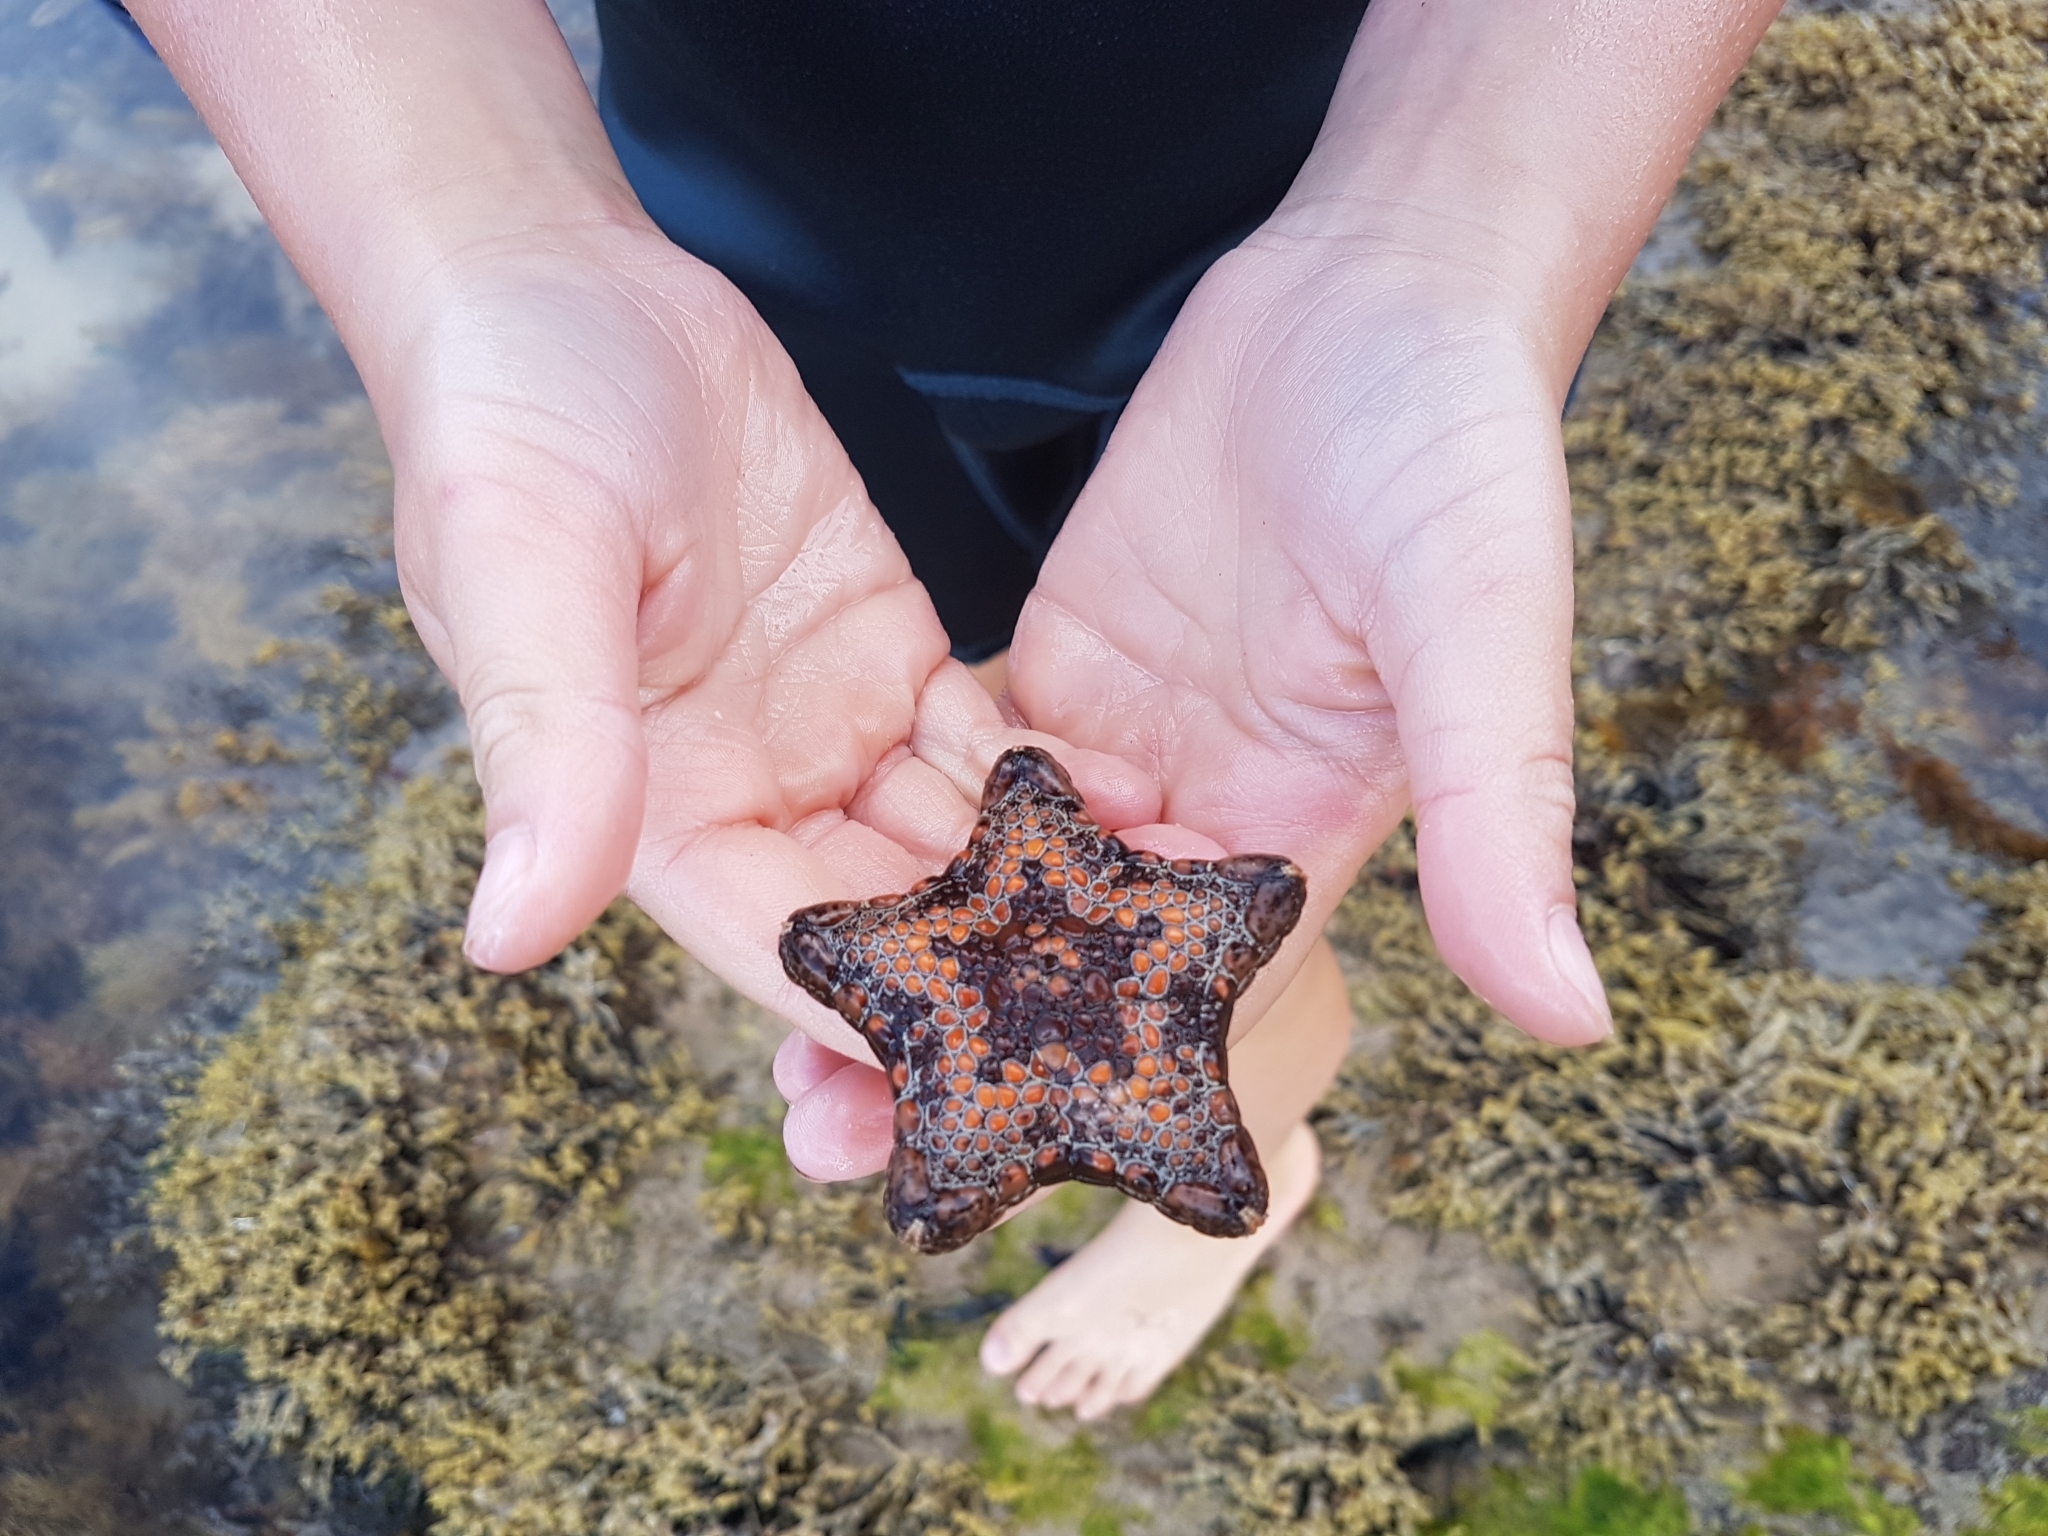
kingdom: Animalia
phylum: Echinodermata
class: Asteroidea
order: Valvatida
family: Goniasteridae
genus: Tosia
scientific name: Tosia australis
